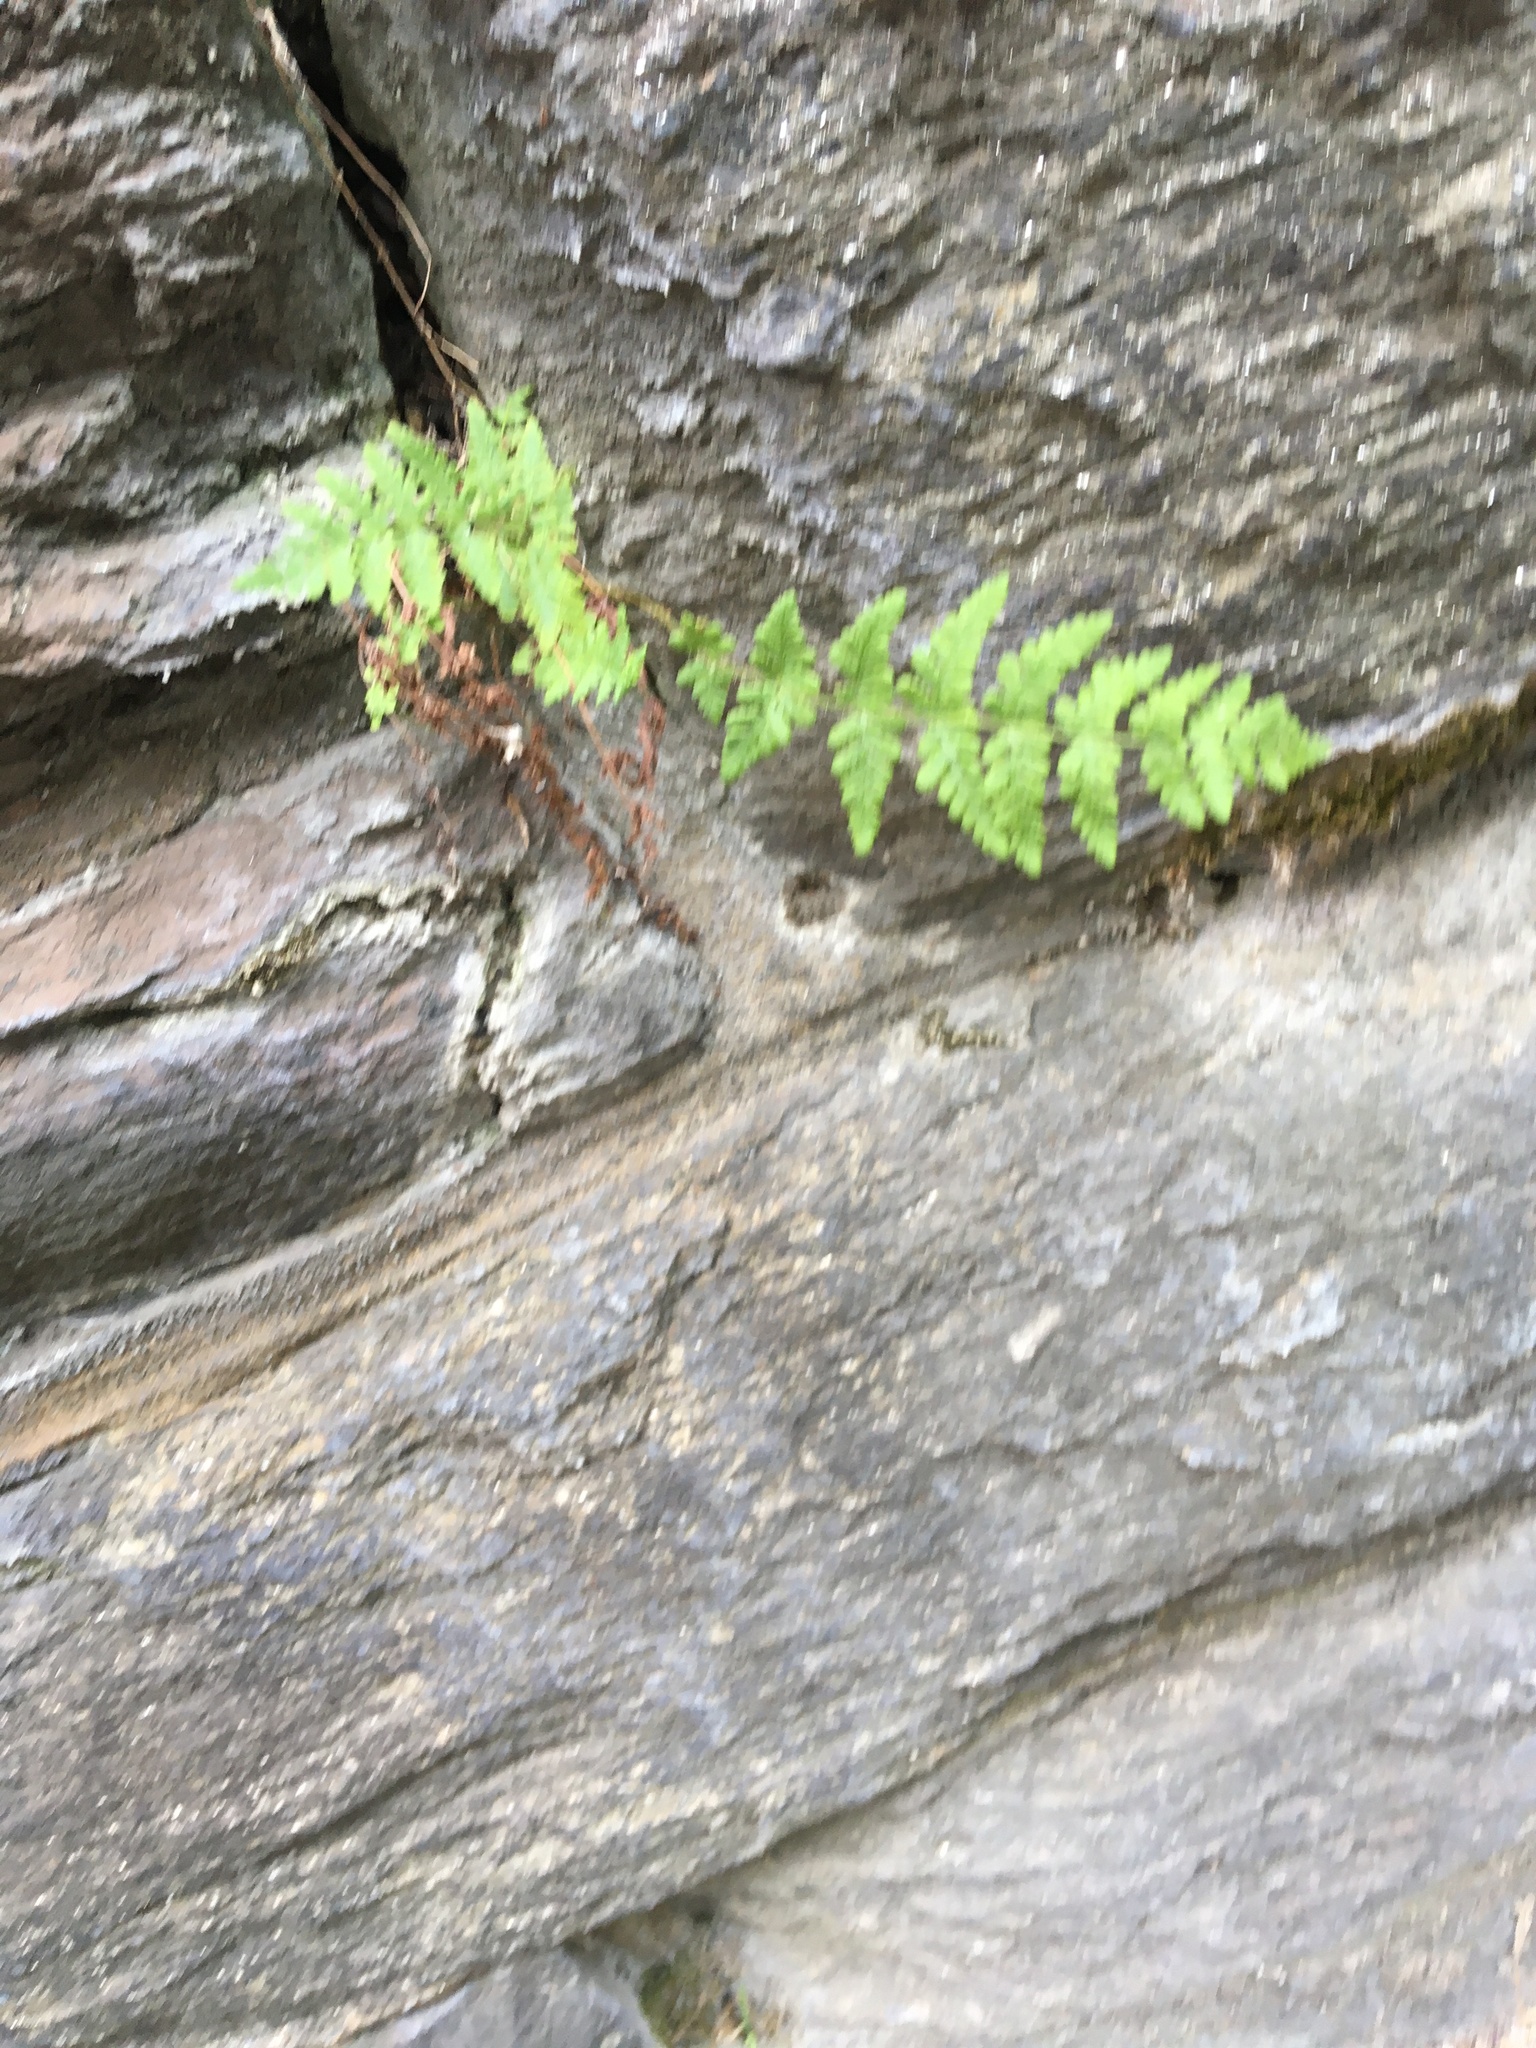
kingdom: Plantae
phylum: Tracheophyta
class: Polypodiopsida
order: Polypodiales
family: Woodsiaceae
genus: Physematium
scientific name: Physematium obtusum
